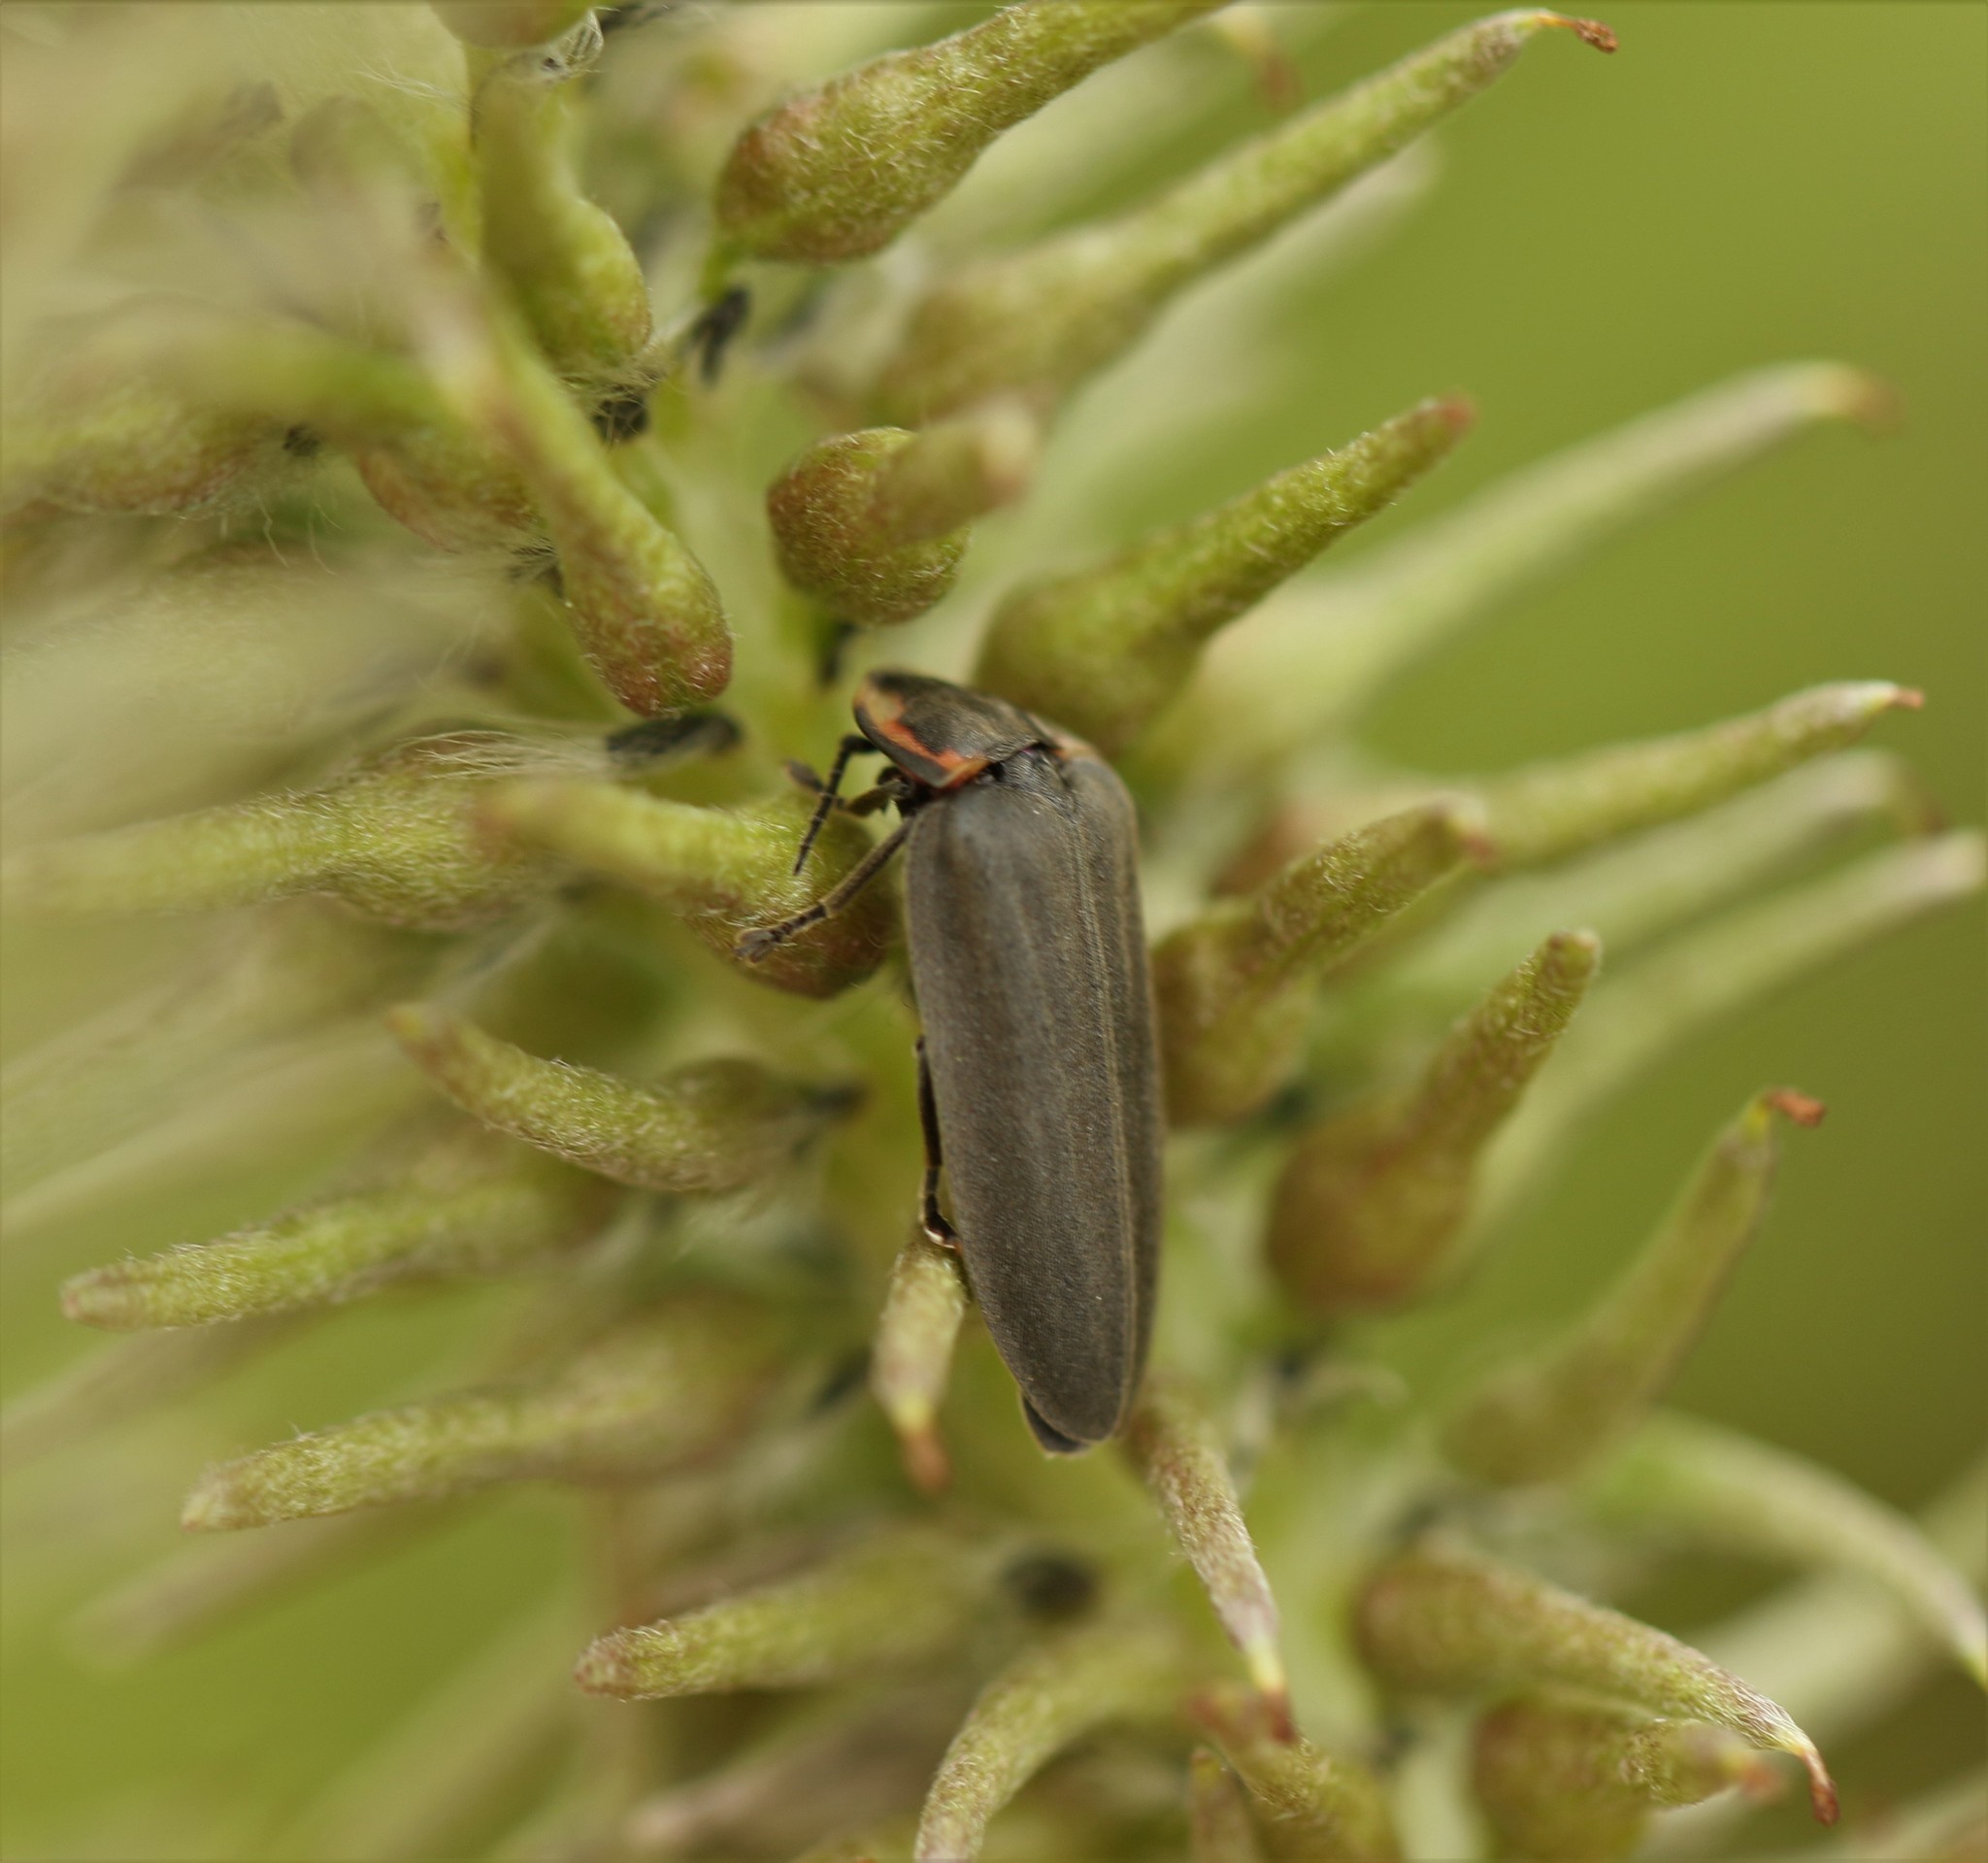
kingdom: Animalia
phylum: Arthropoda
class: Insecta
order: Coleoptera
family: Lampyridae
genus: Photinus
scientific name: Photinus corrusca
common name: Winter firefly
